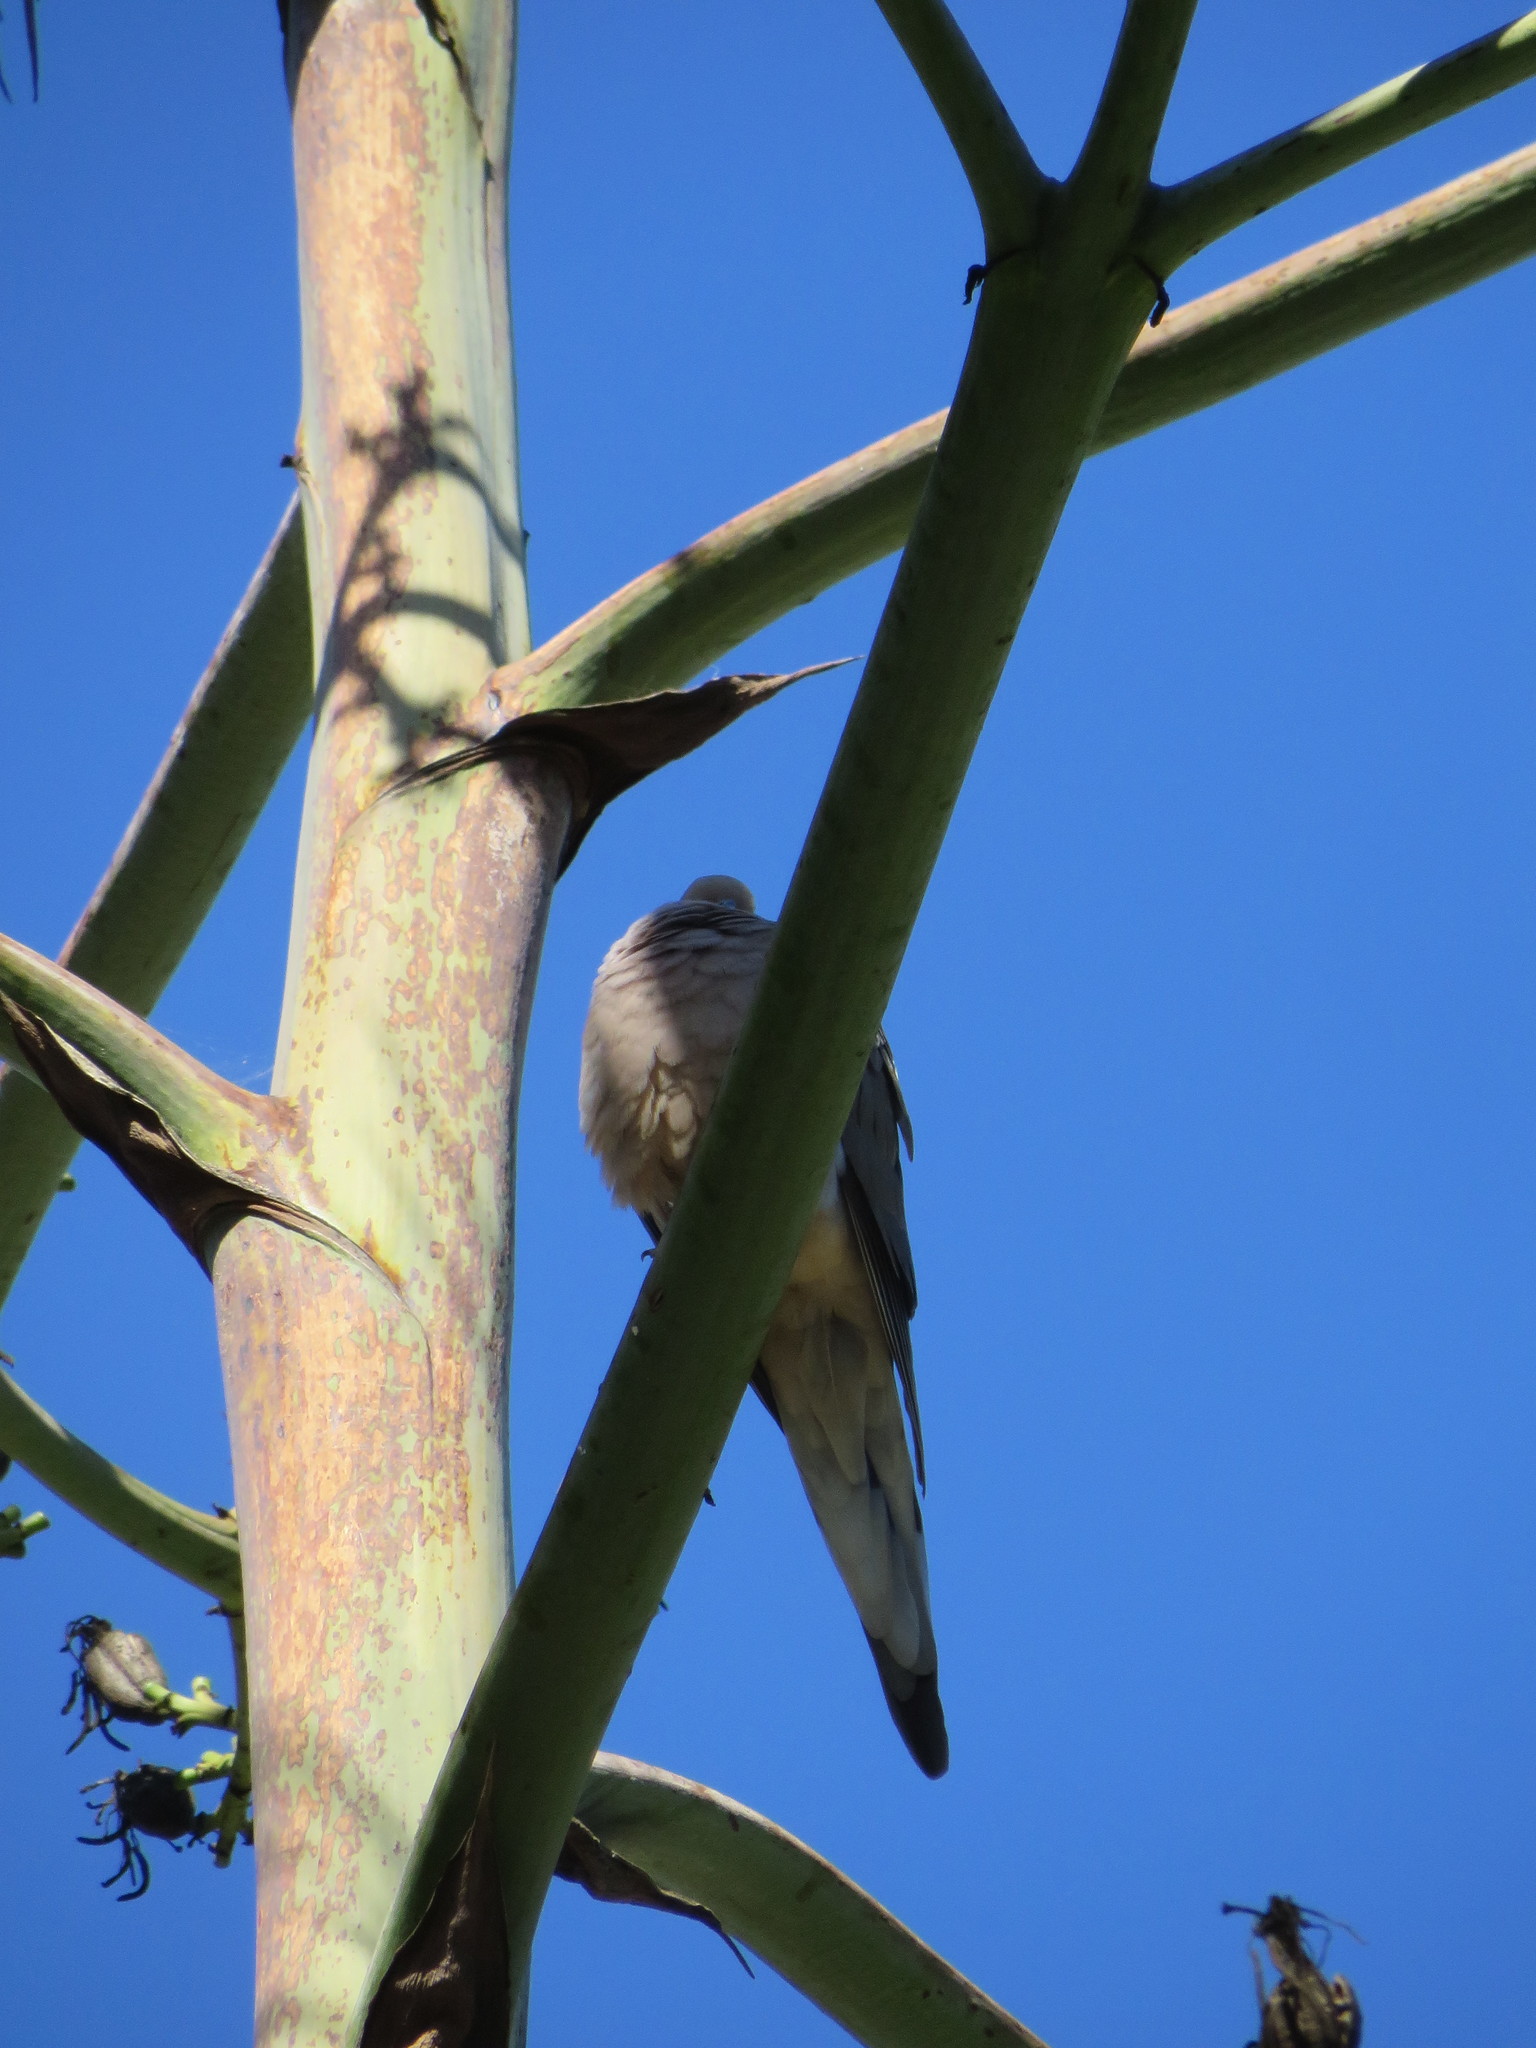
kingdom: Animalia
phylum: Chordata
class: Aves
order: Columbiformes
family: Columbidae
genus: Zenaida
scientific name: Zenaida macroura
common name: Mourning dove
